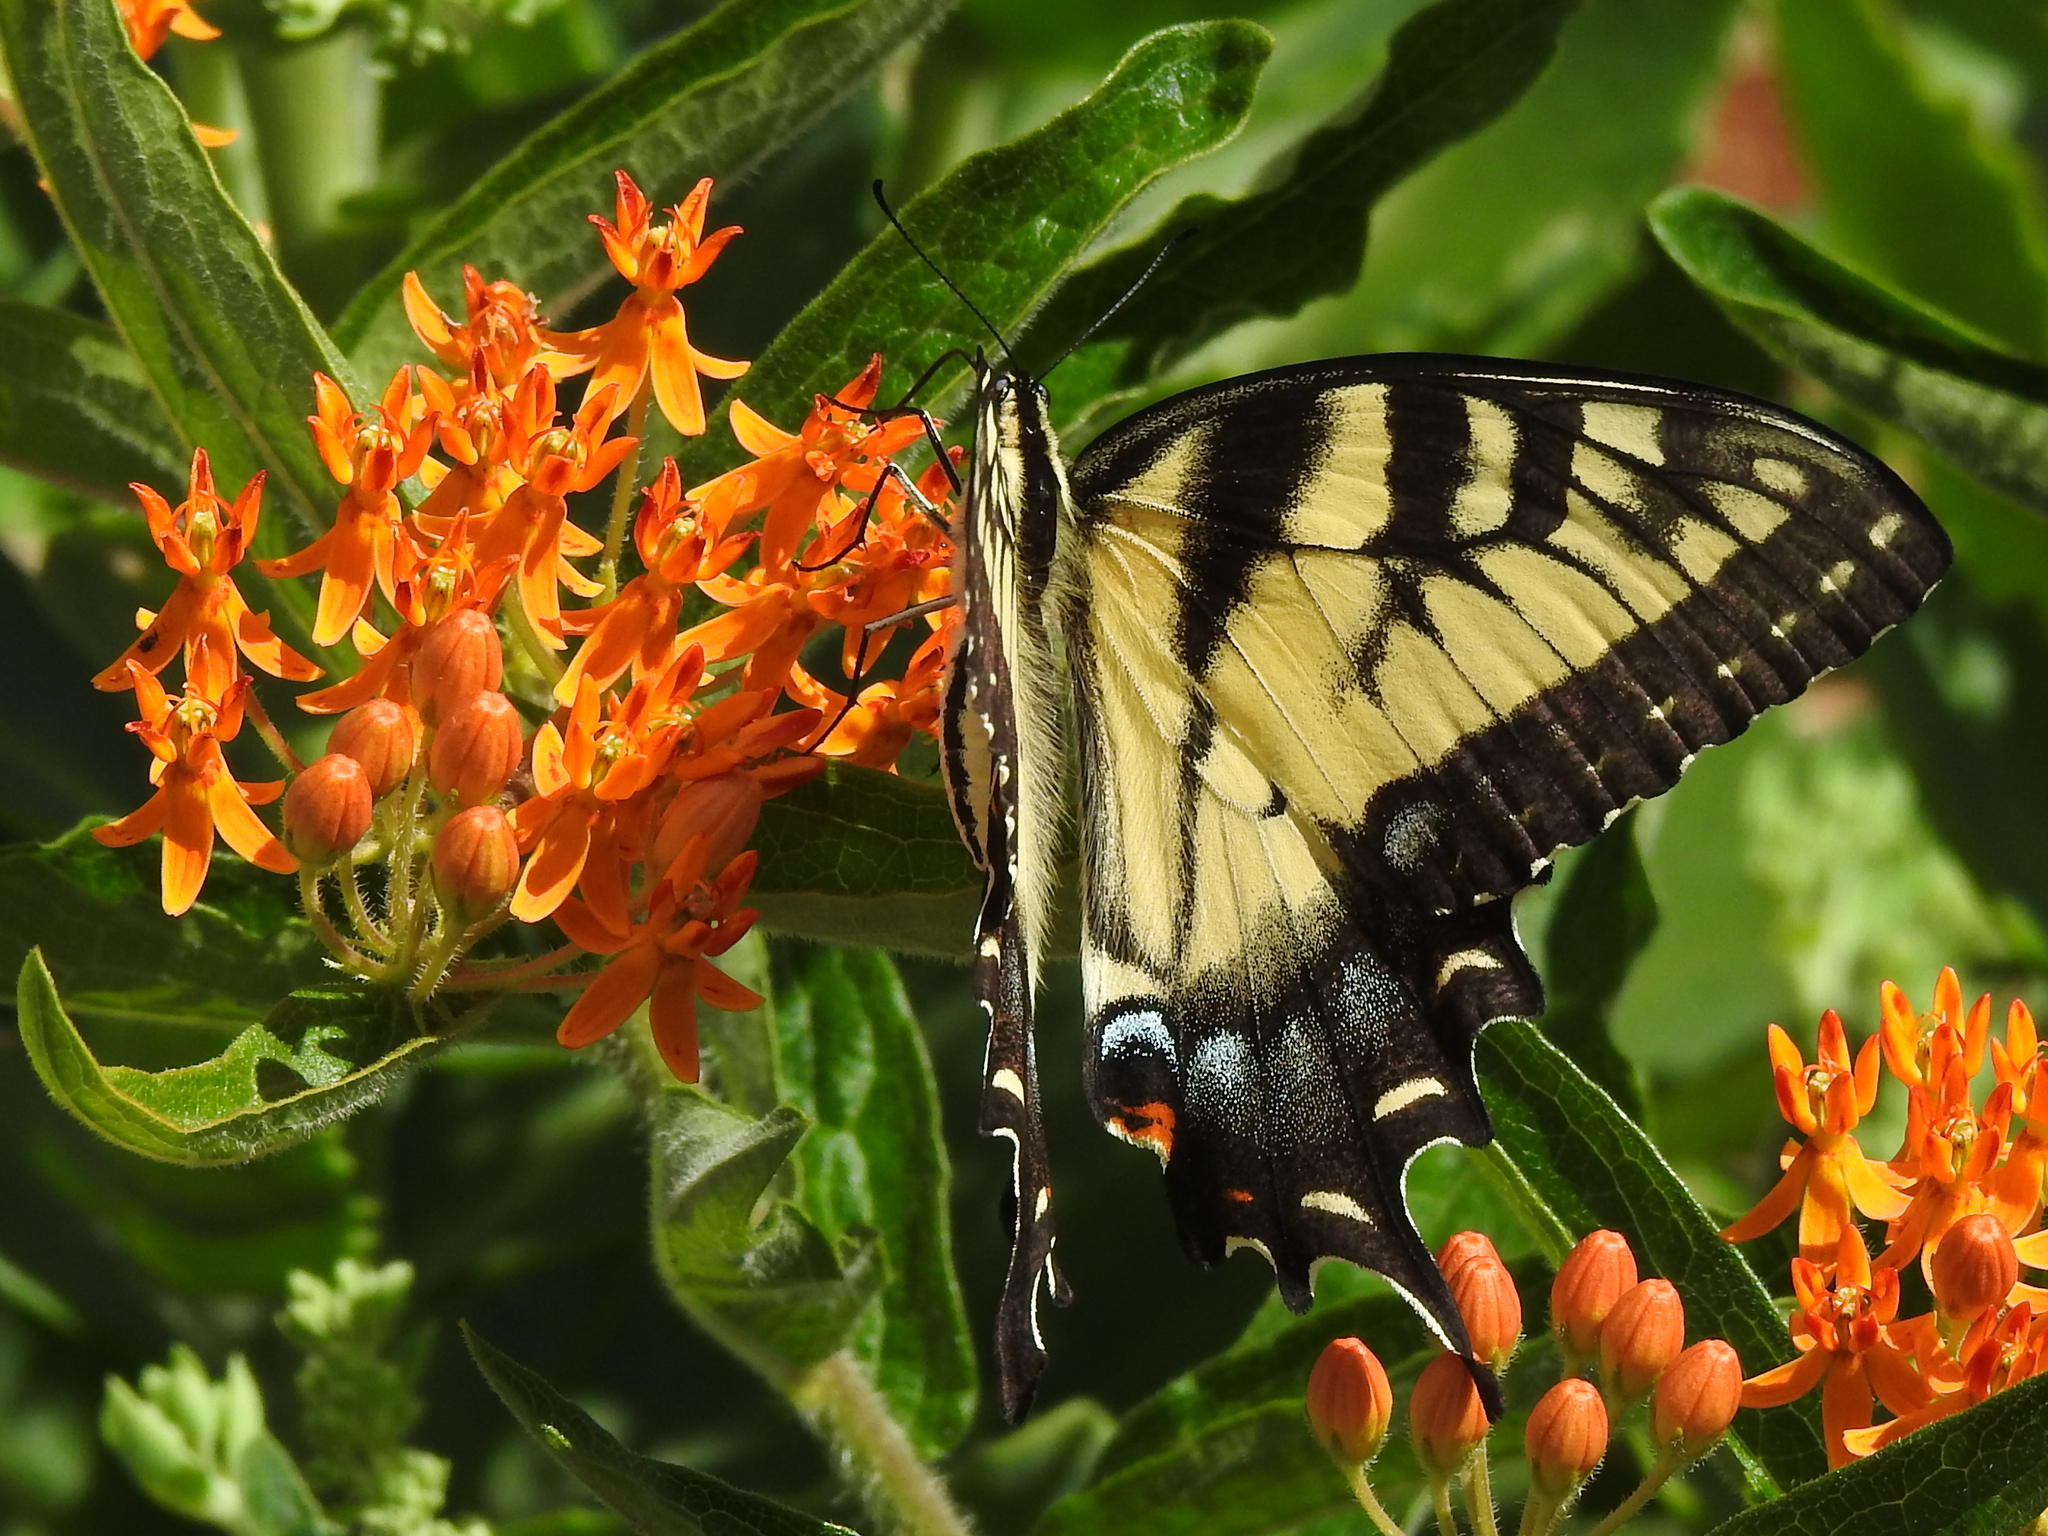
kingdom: Animalia
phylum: Arthropoda
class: Insecta
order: Lepidoptera
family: Papilionidae
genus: Papilio
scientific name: Papilio glaucus
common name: Tiger swallowtail
